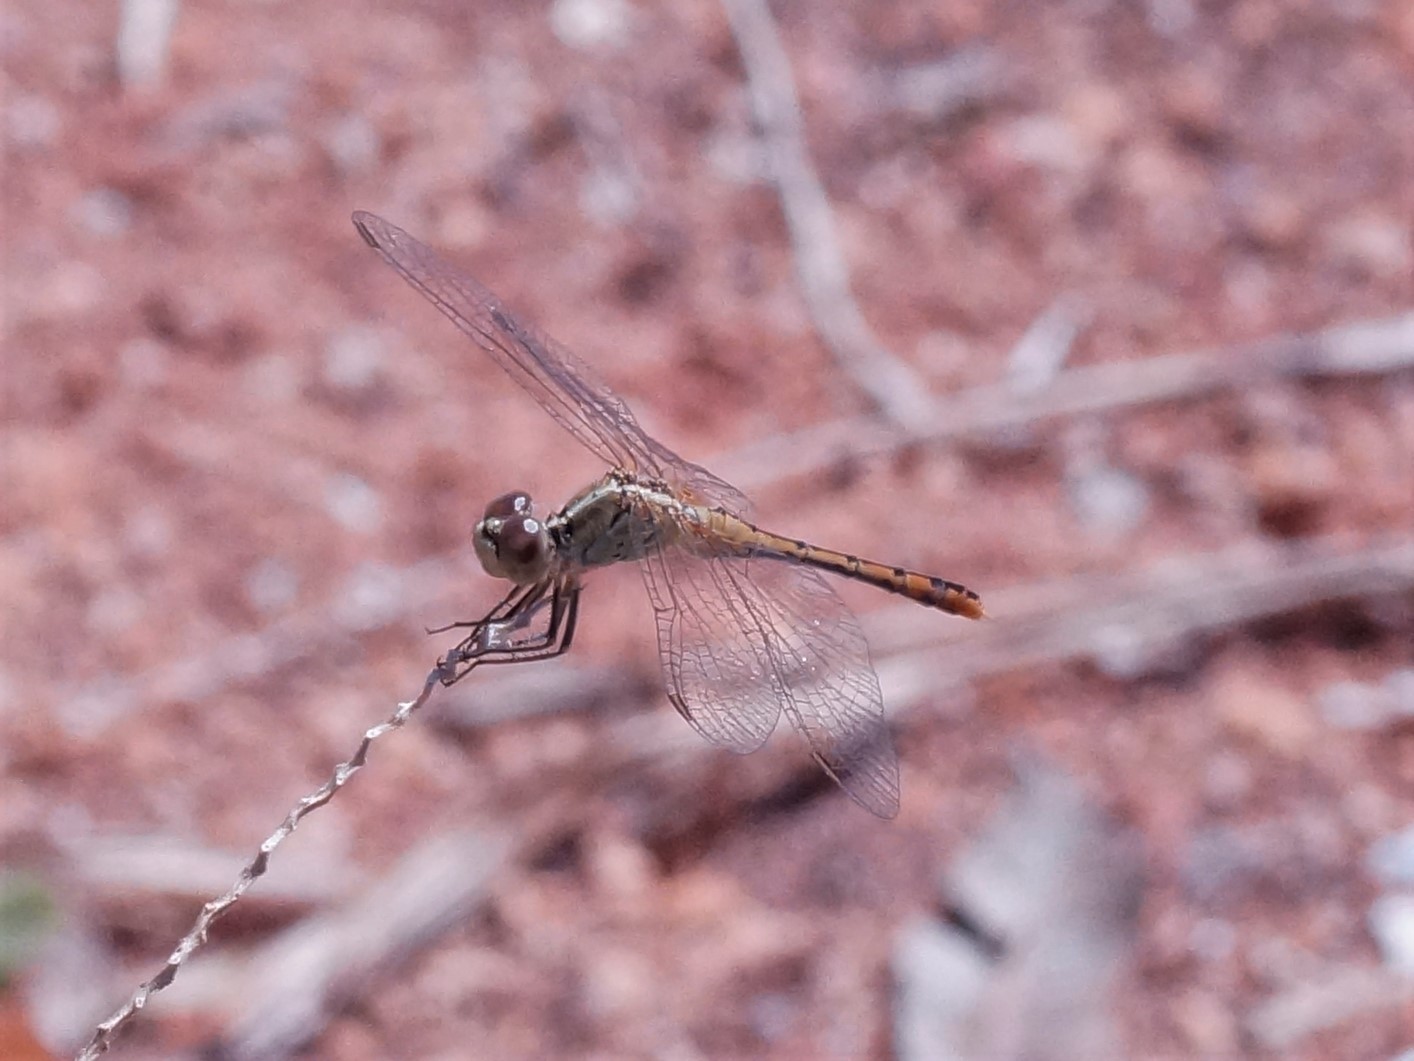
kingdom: Animalia
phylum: Arthropoda
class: Insecta
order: Odonata
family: Libellulidae
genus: Diplacodes
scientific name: Diplacodes bipunctata
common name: Red percher dragonfly
